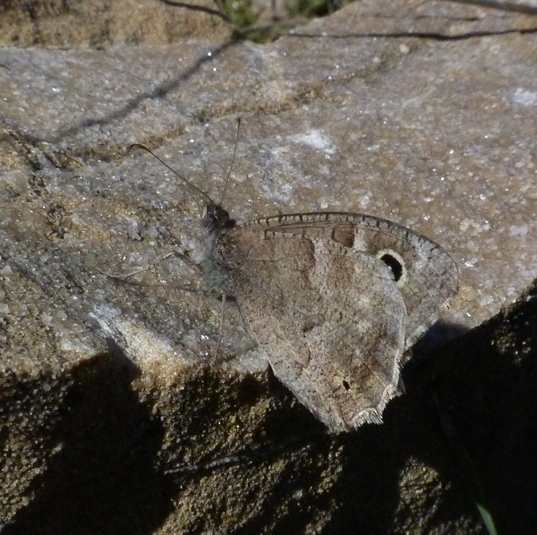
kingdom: Animalia
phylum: Arthropoda
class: Insecta
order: Lepidoptera
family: Nymphalidae
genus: Hipparchia
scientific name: Hipparchia statilinus
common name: Tree grayling
